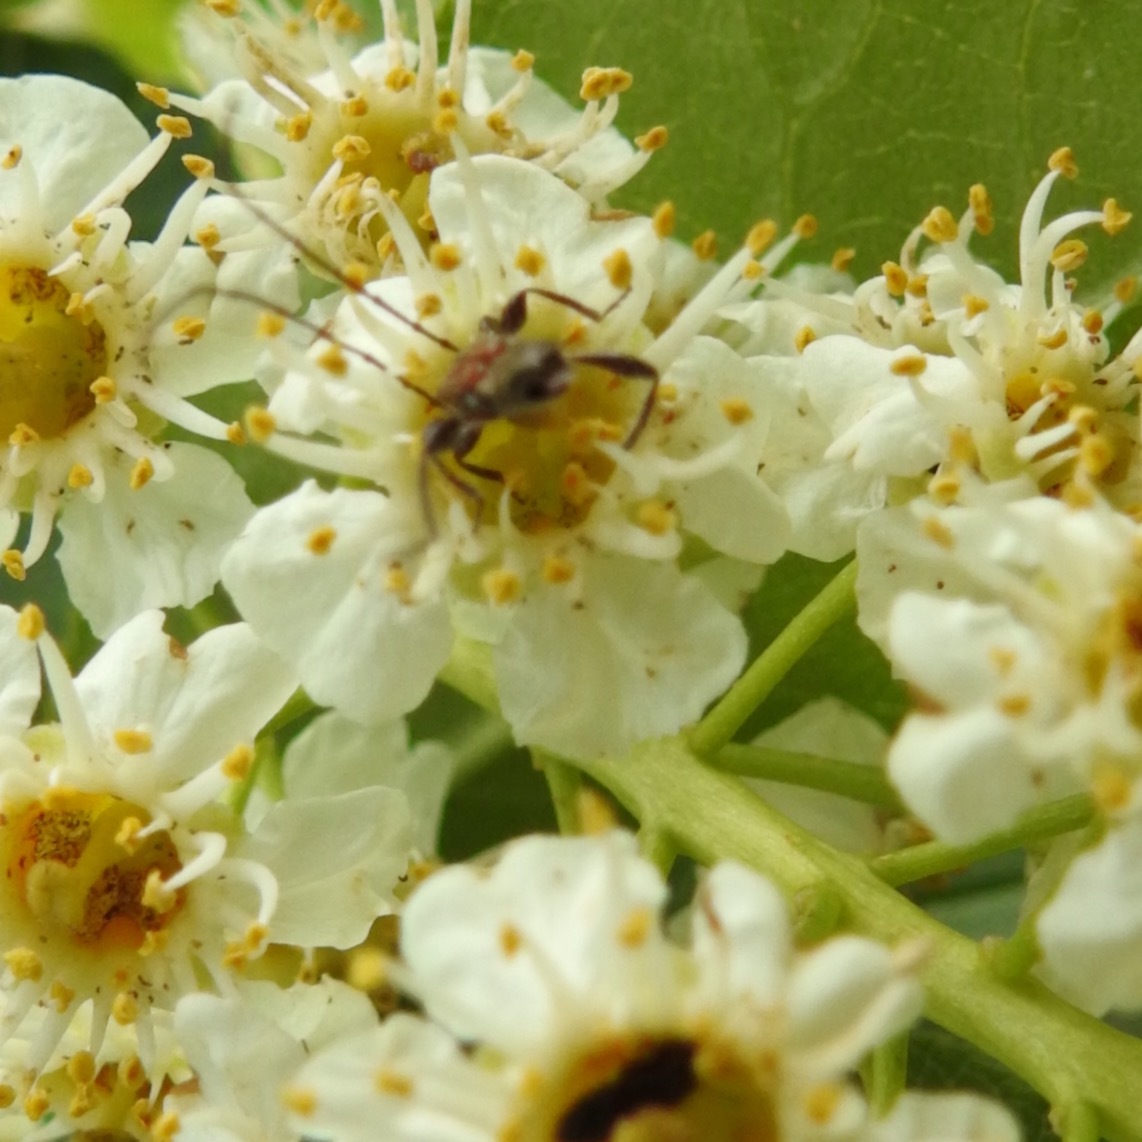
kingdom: Animalia
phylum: Arthropoda
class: Insecta
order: Coleoptera
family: Cerambycidae
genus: Callimoxys
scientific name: Callimoxys fuscipennis
